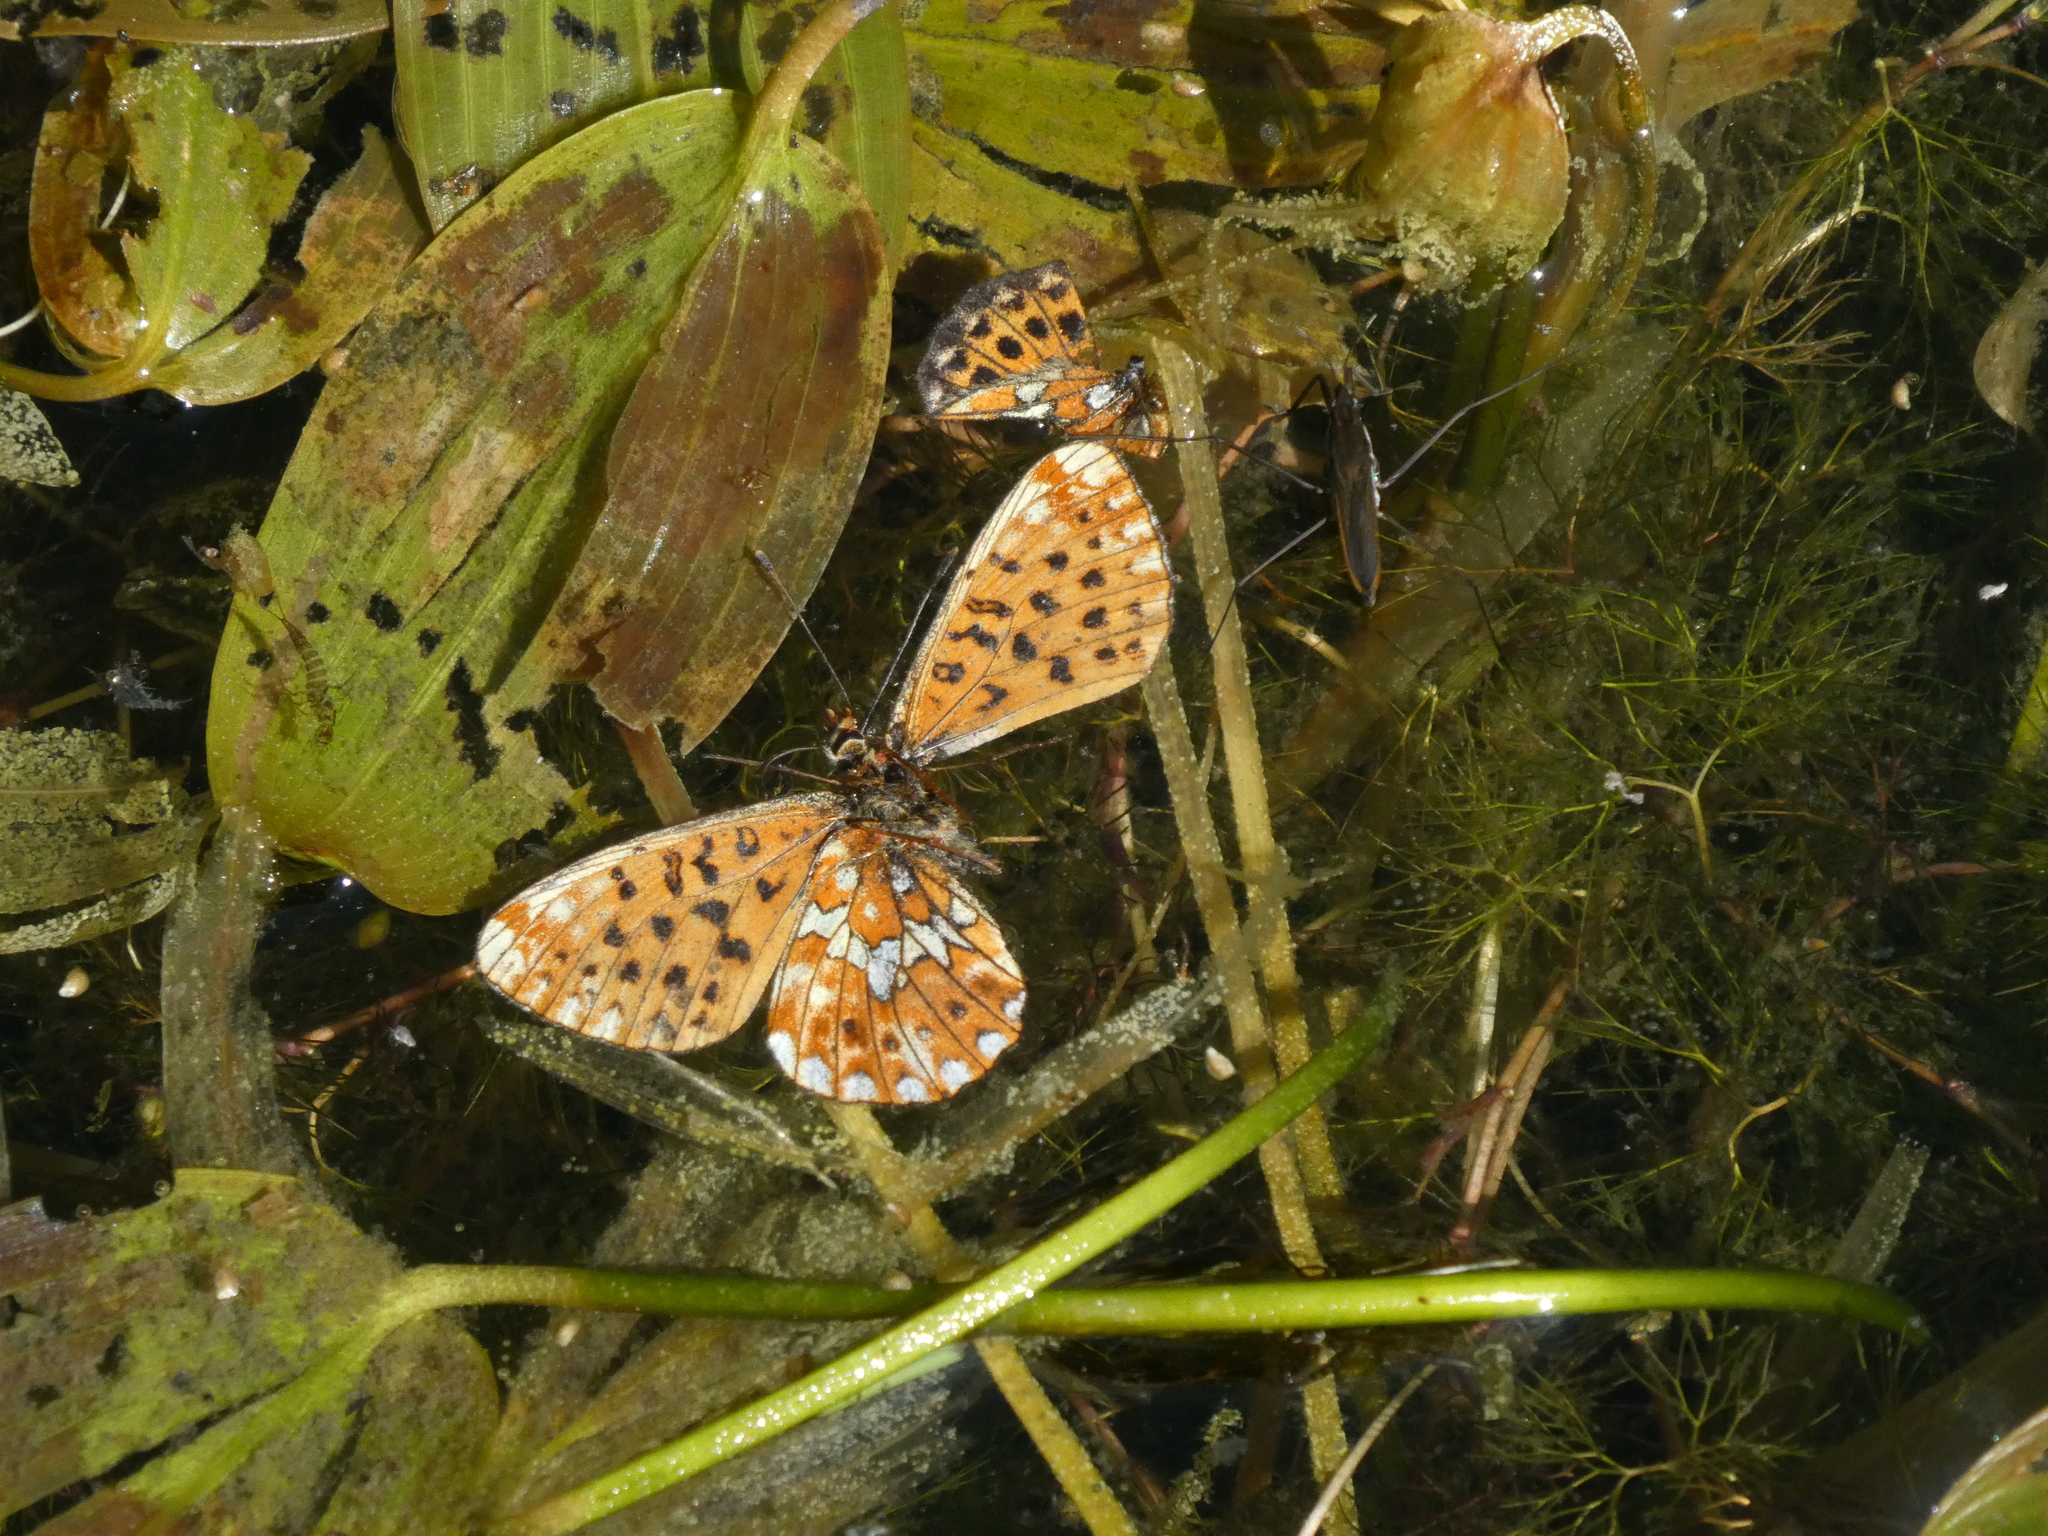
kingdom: Animalia
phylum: Arthropoda
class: Insecta
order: Lepidoptera
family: Nymphalidae
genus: Clossiana
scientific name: Clossiana euphrosyne
